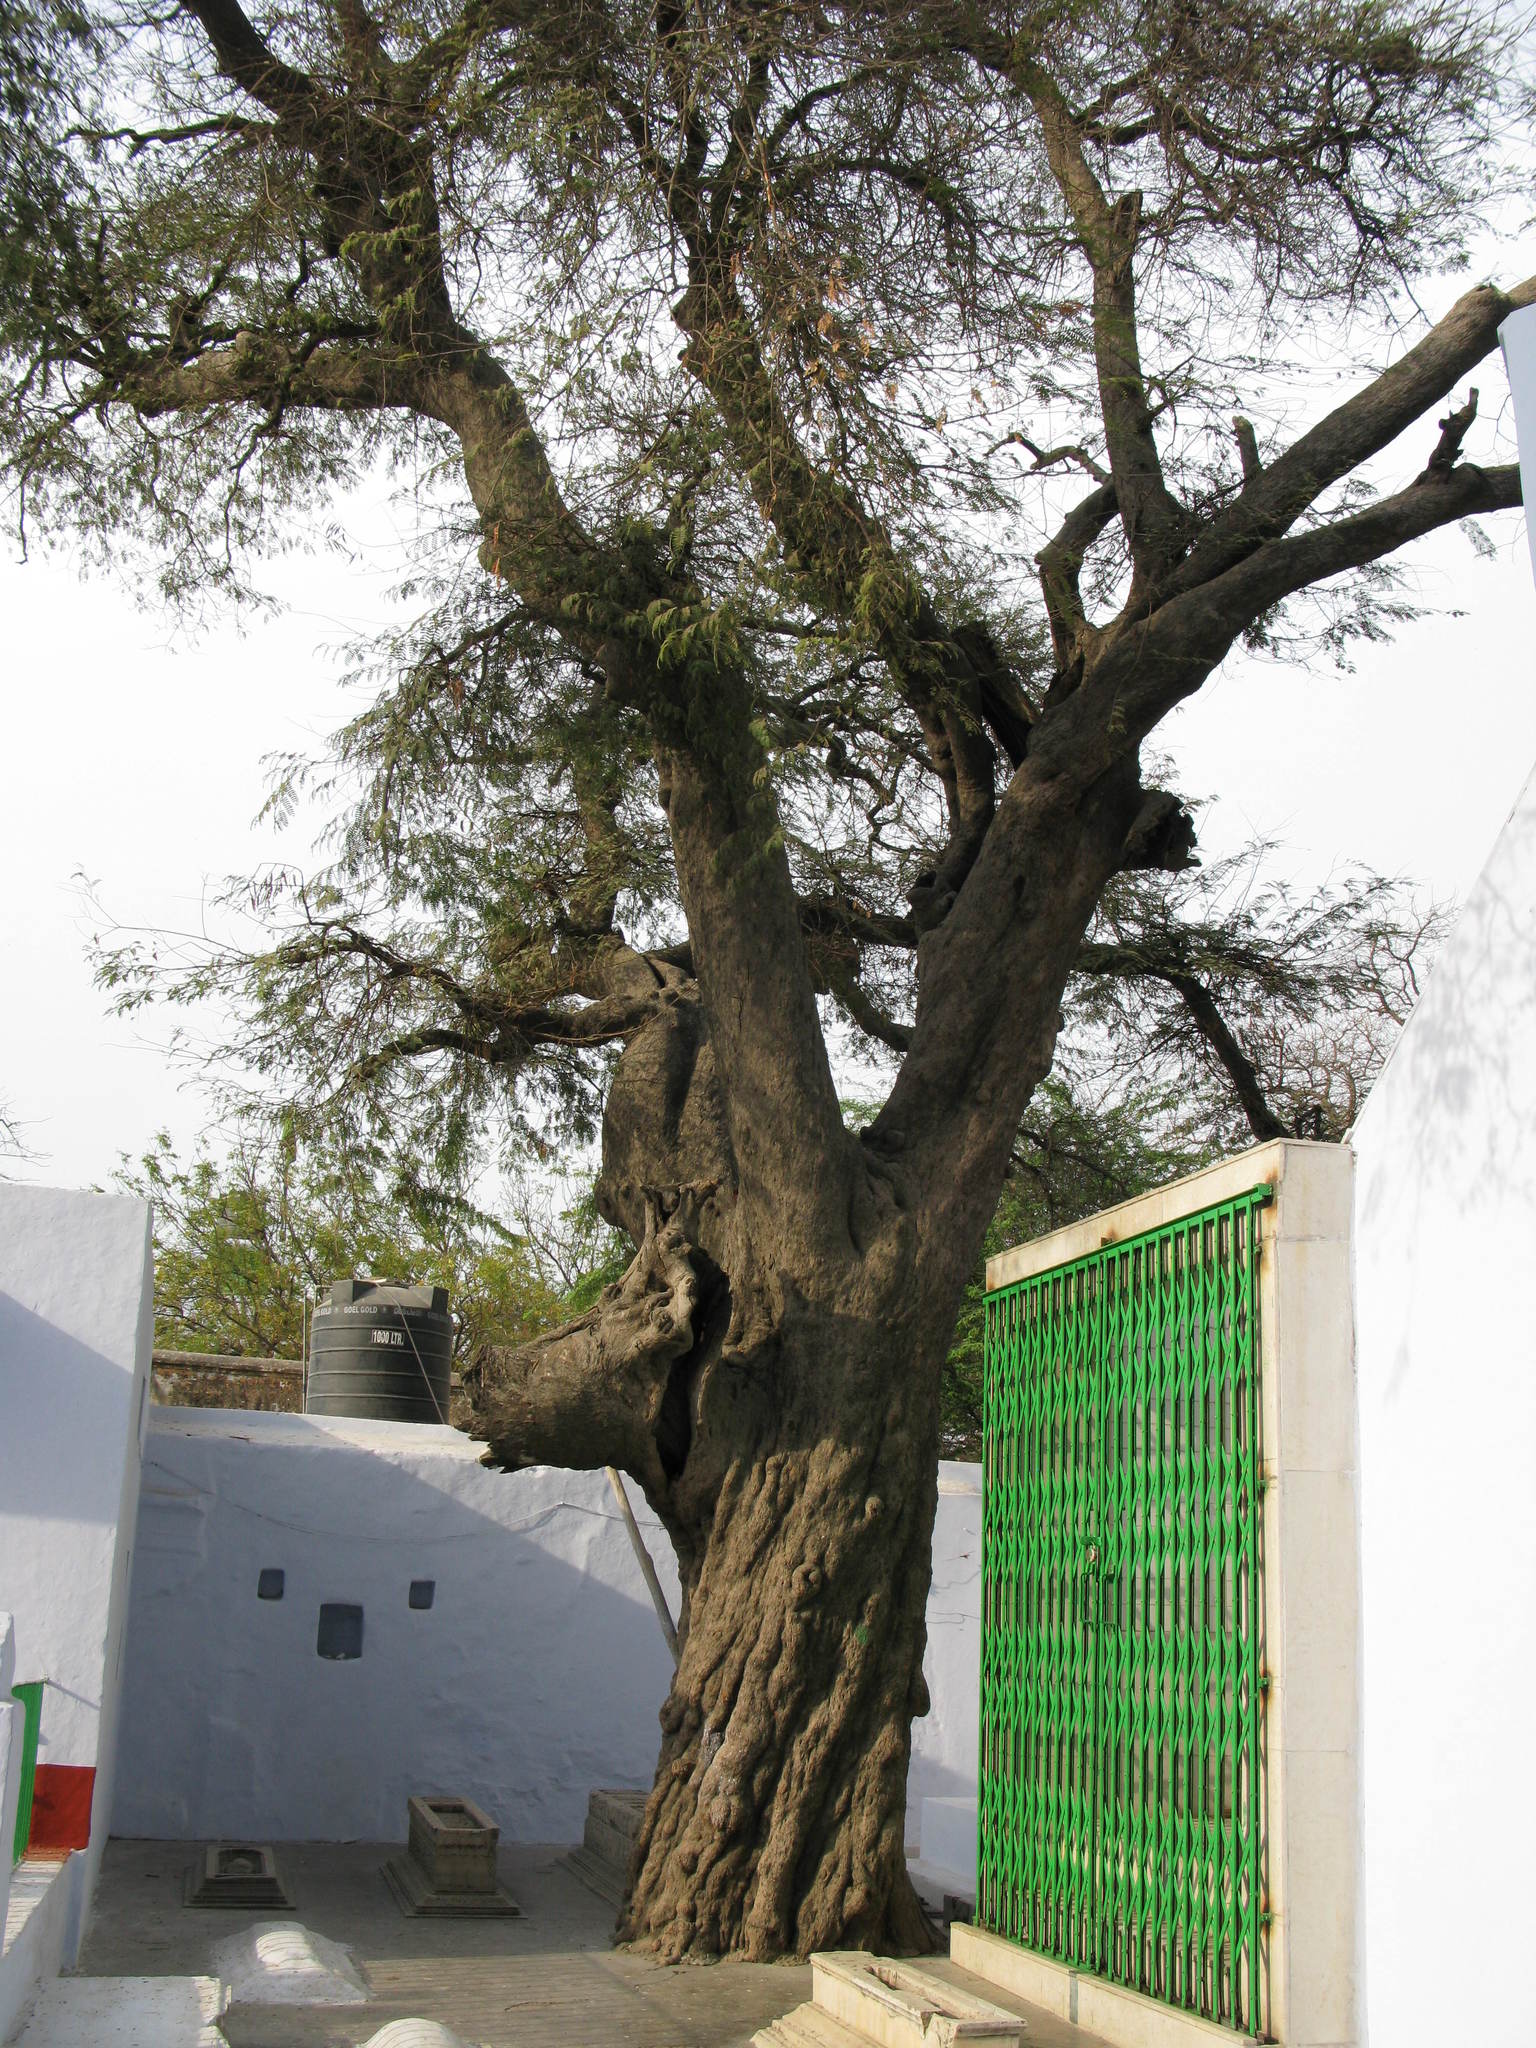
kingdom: Plantae
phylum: Tracheophyta
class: Magnoliopsida
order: Fabales
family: Fabaceae
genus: Tamarindus
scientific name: Tamarindus indica
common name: Tamarind
